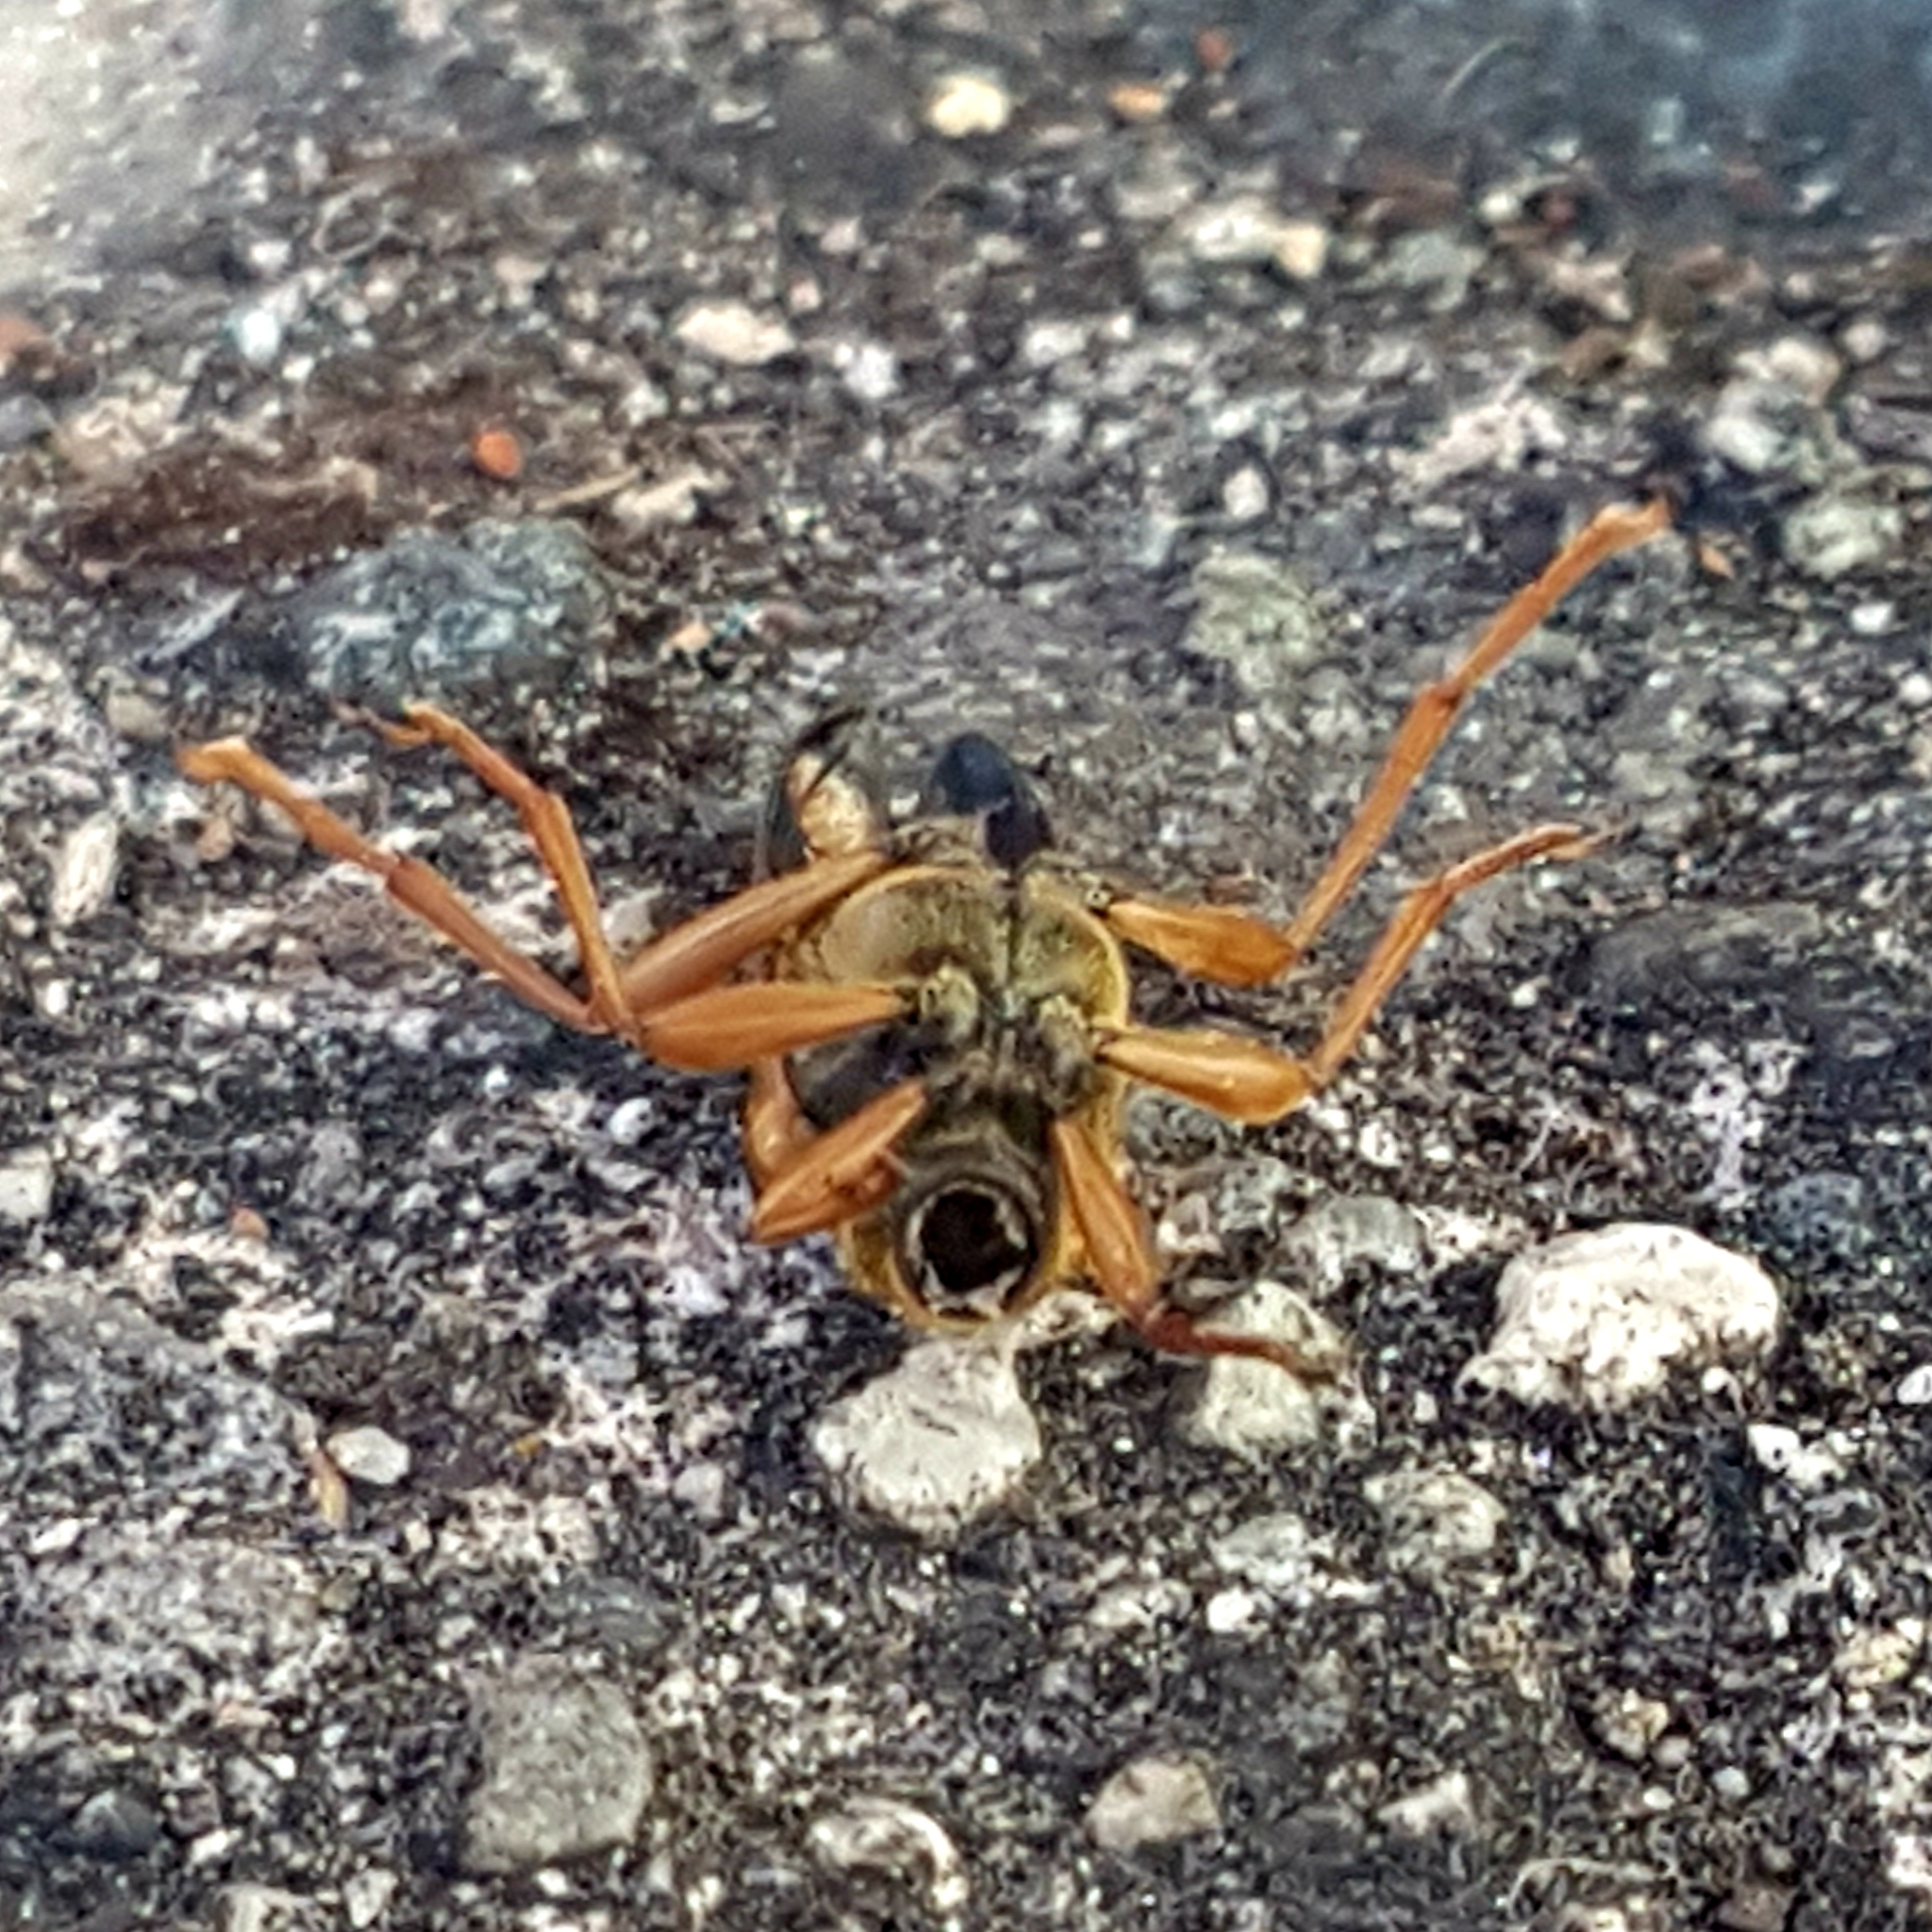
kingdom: Animalia
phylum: Arthropoda
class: Insecta
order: Coleoptera
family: Cerambycidae
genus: Xestoleptura
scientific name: Xestoleptura crassipes
